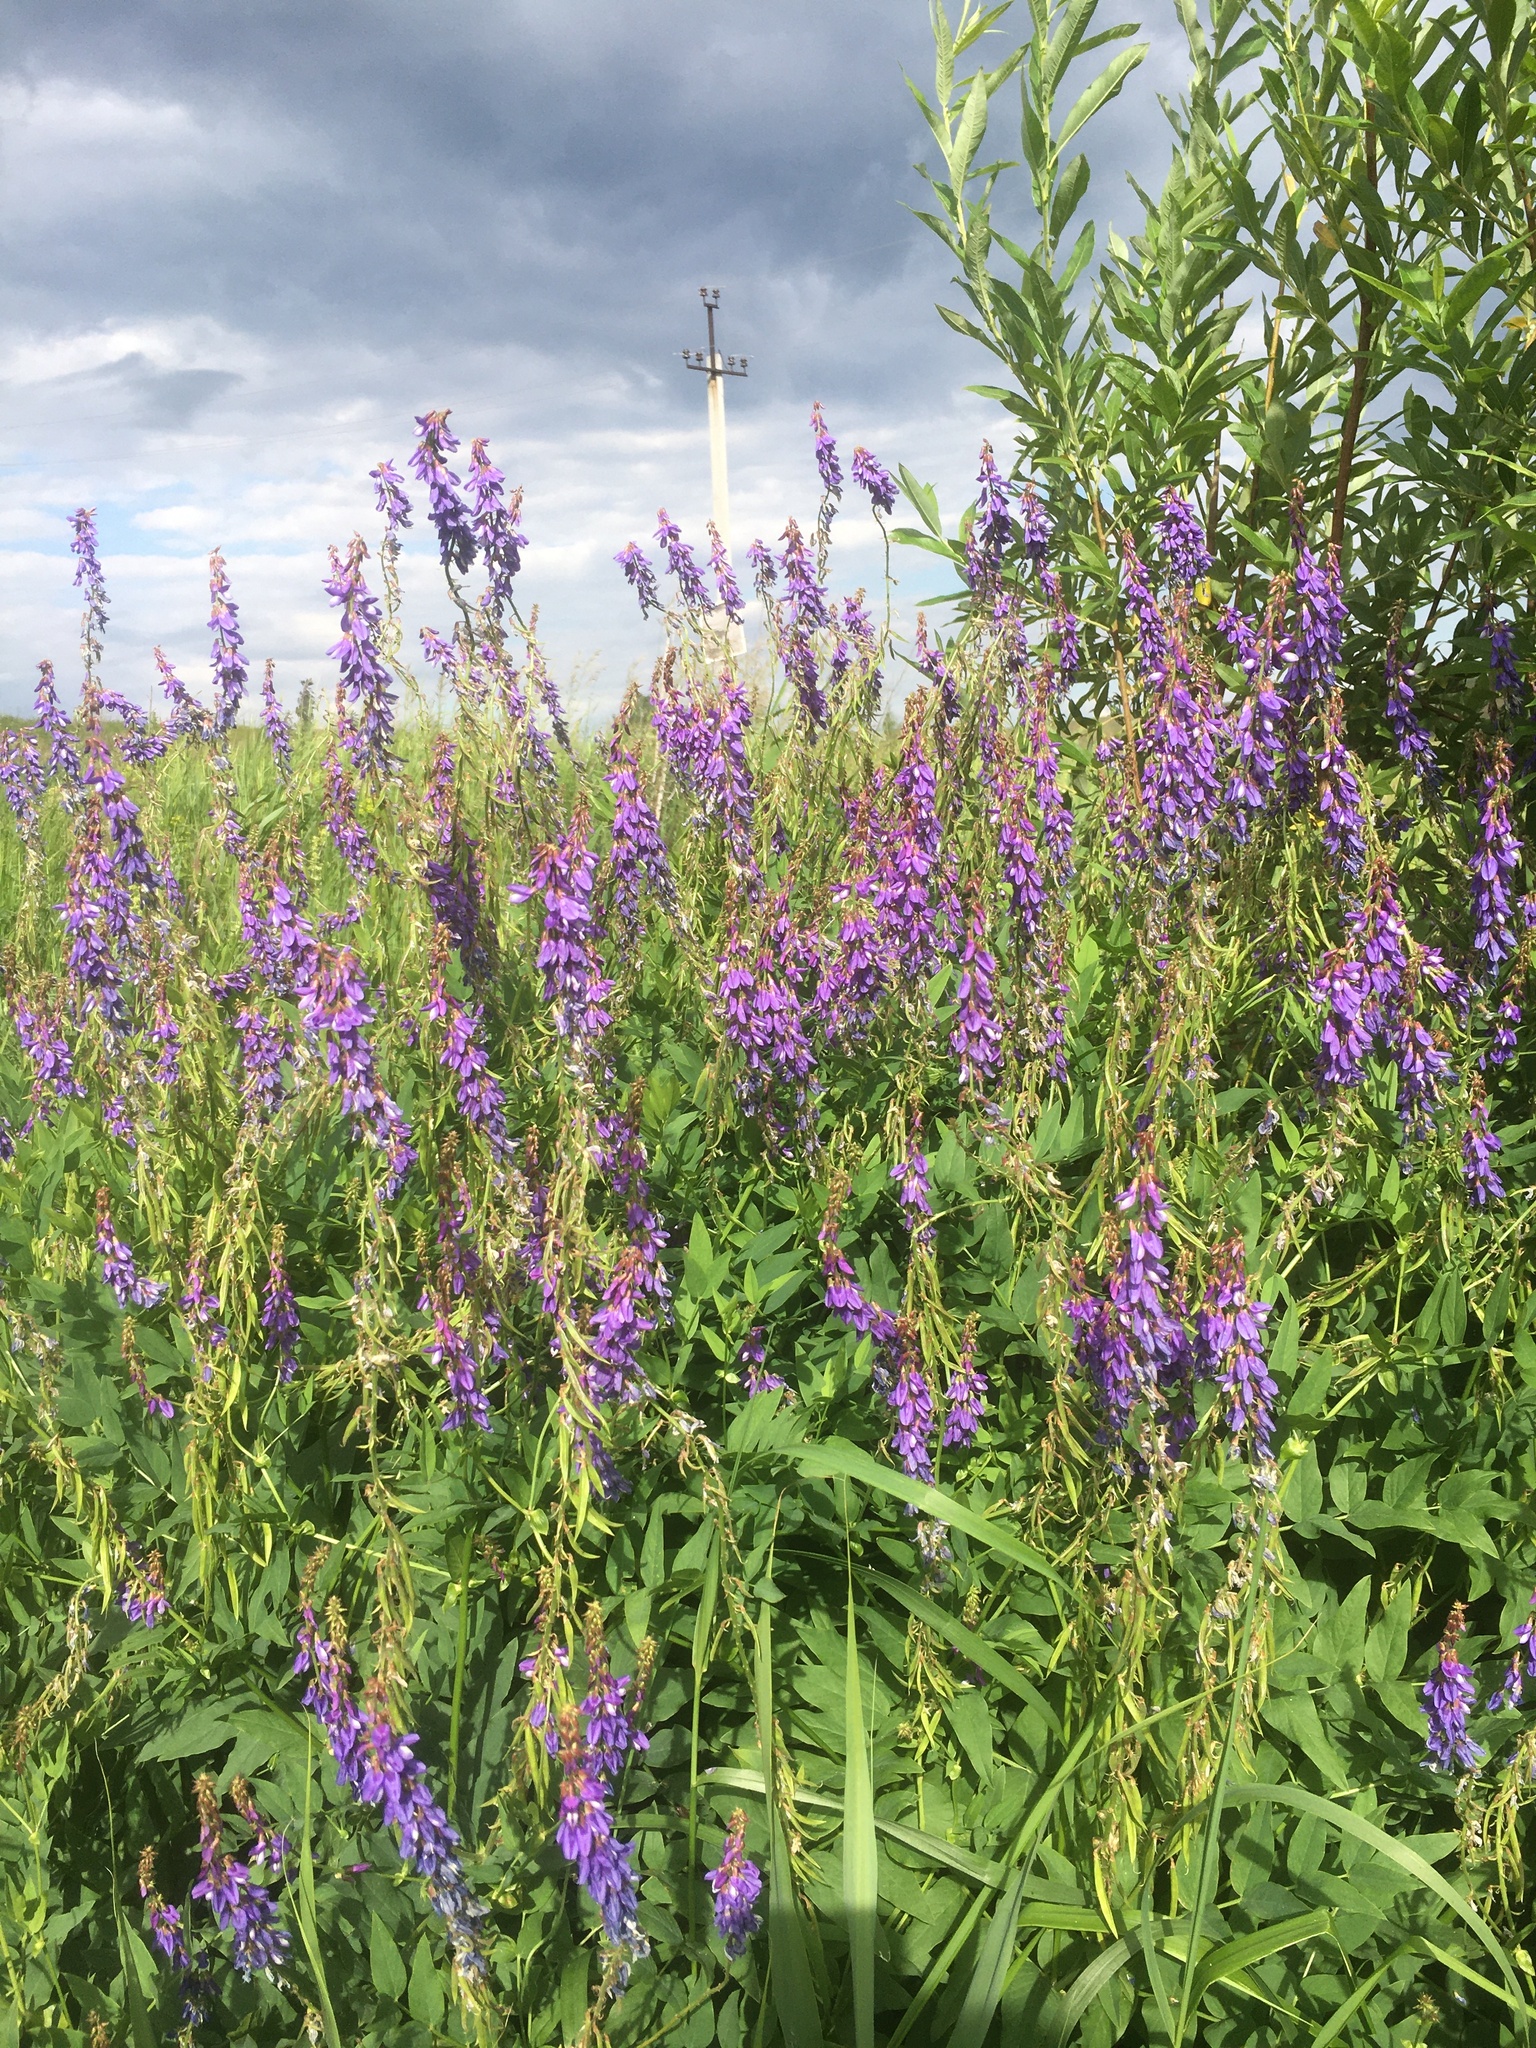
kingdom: Plantae
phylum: Tracheophyta
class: Magnoliopsida
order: Fabales
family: Fabaceae
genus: Galega
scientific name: Galega orientalis
